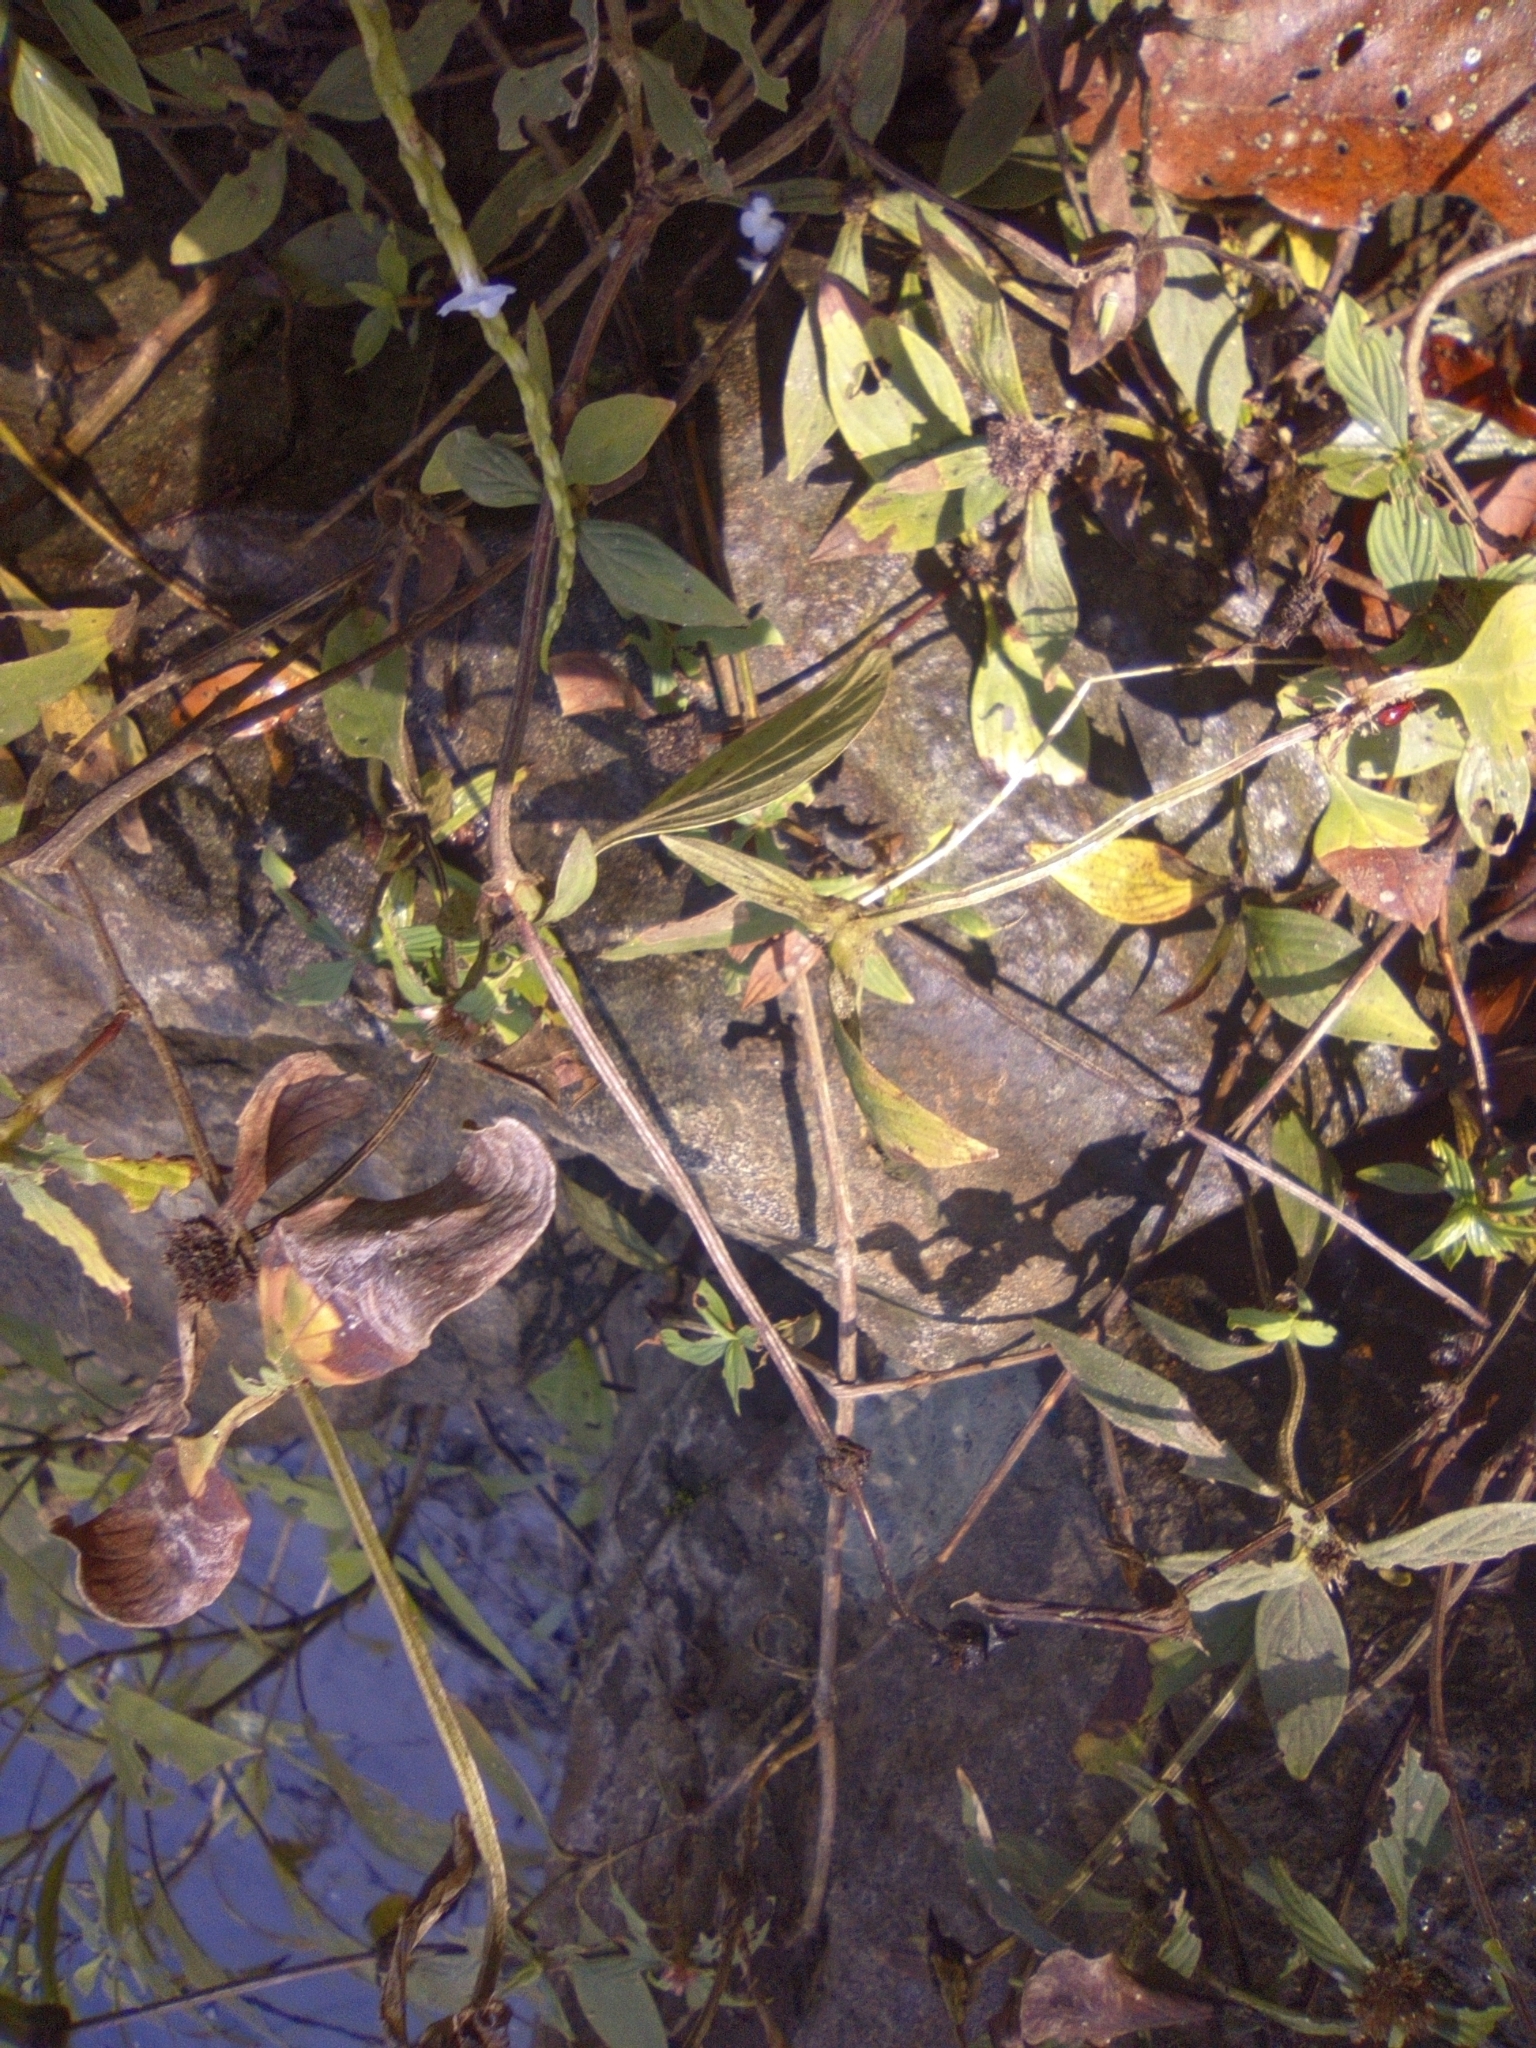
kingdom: Animalia
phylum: Chordata
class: Amphibia
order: Anura
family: Bufonidae
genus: Rhinella
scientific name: Rhinella horribilis
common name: Mesoamerican cane toad
